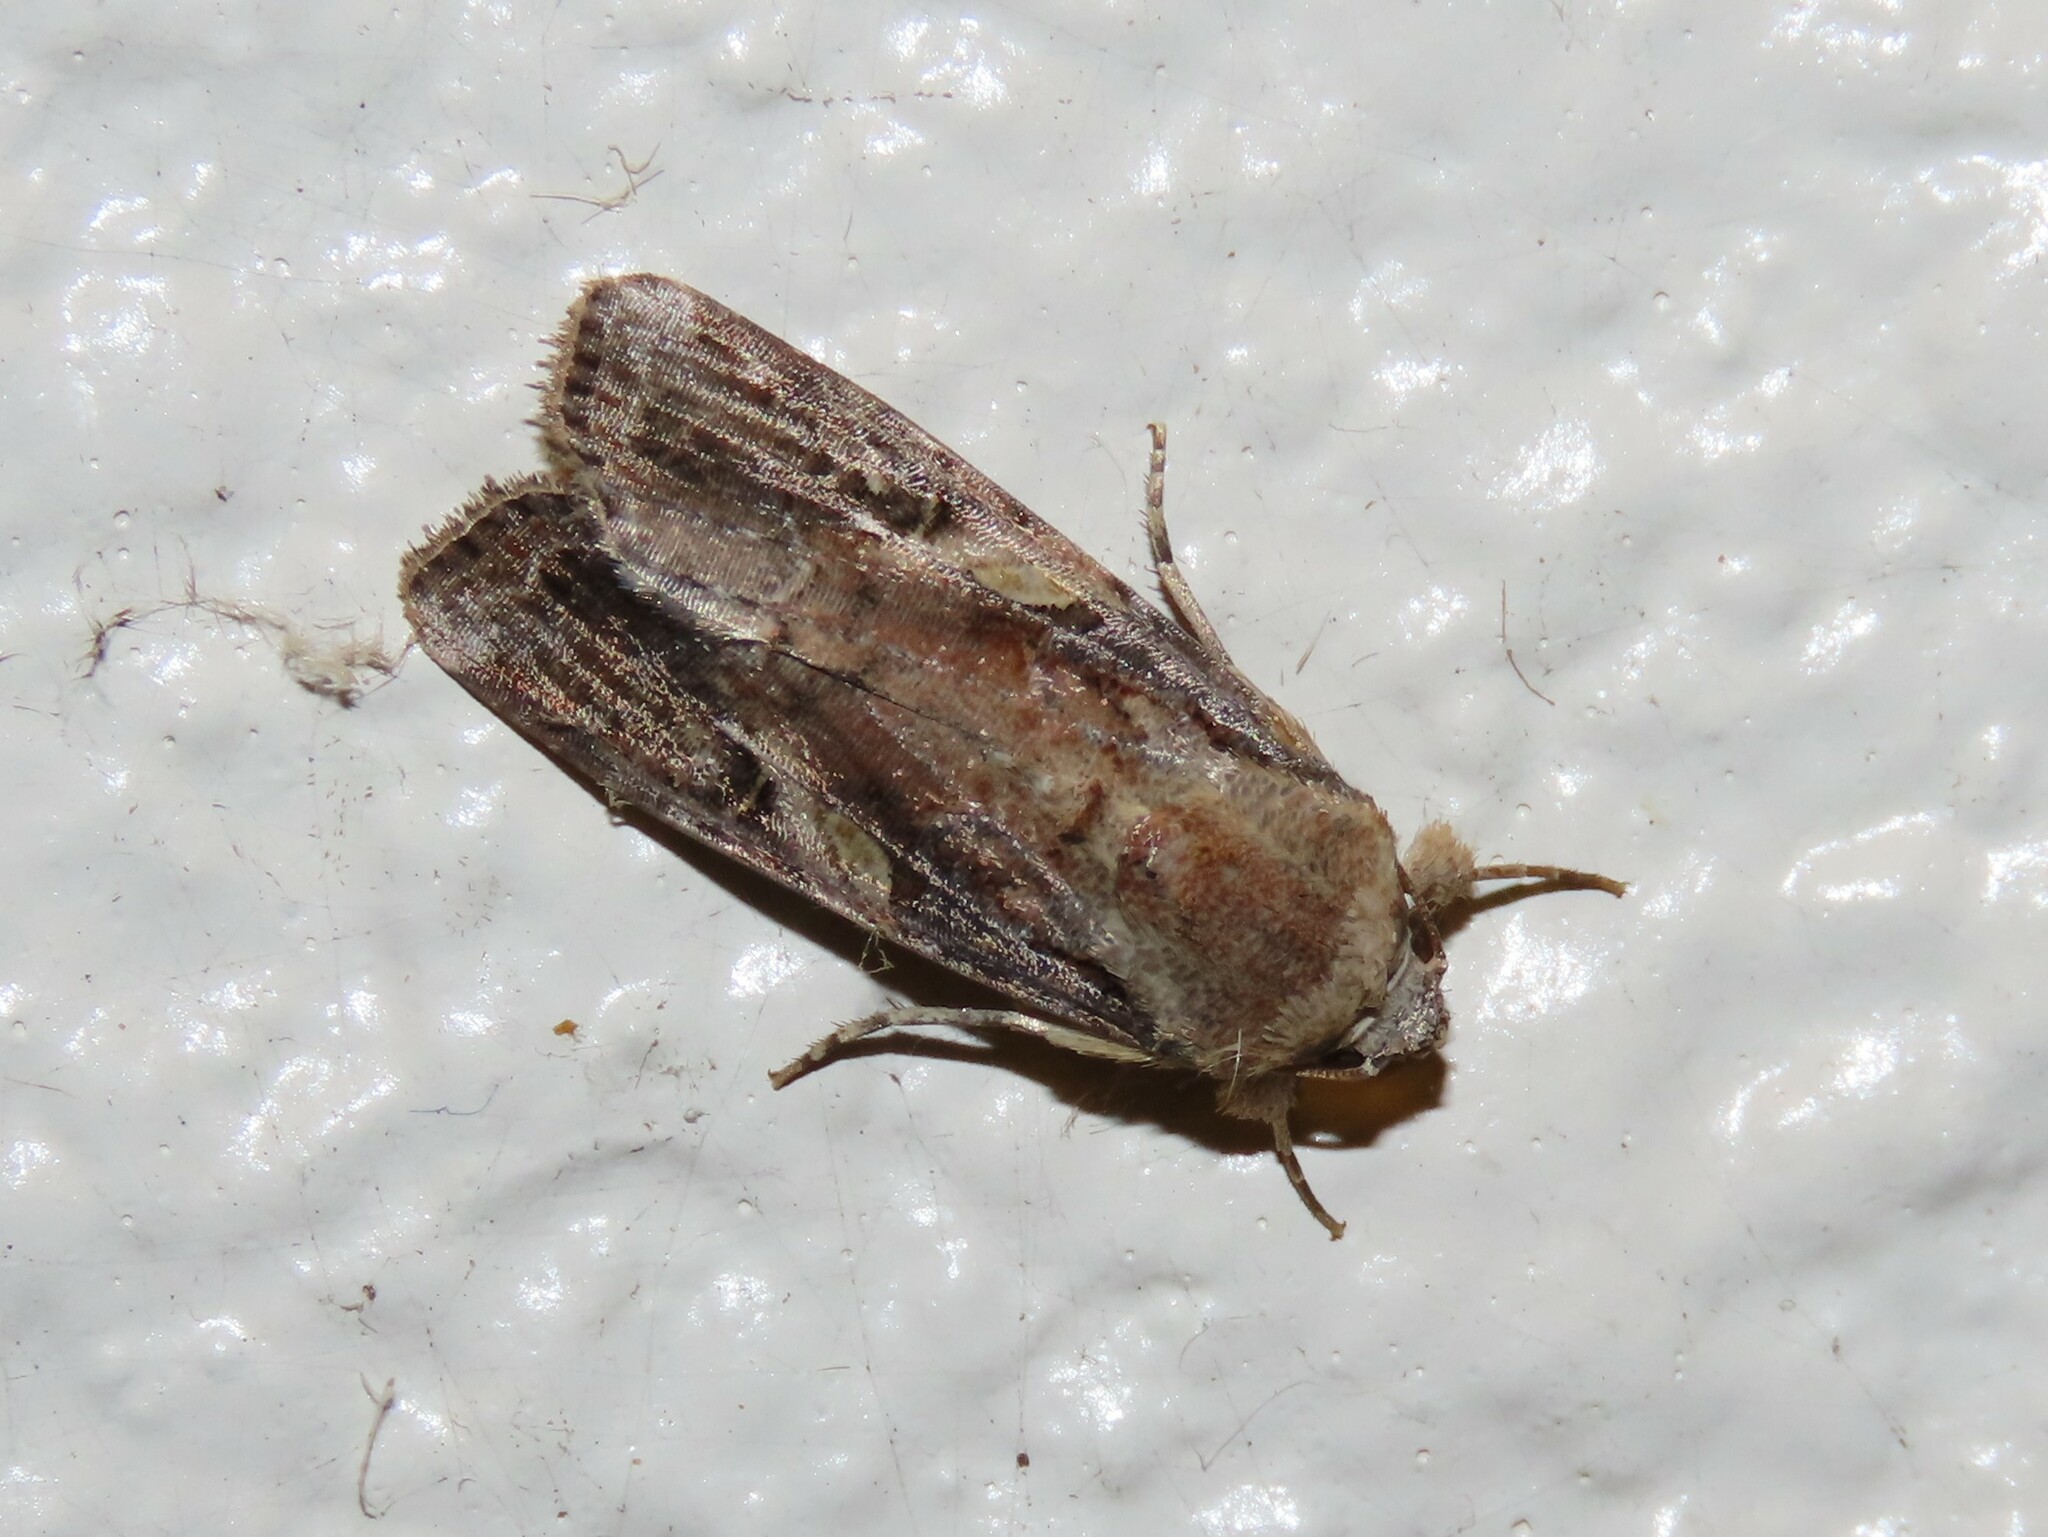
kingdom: Animalia
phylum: Arthropoda
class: Insecta
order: Lepidoptera
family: Noctuidae
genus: Spodoptera
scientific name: Spodoptera frugiperda
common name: Fall armyworm
